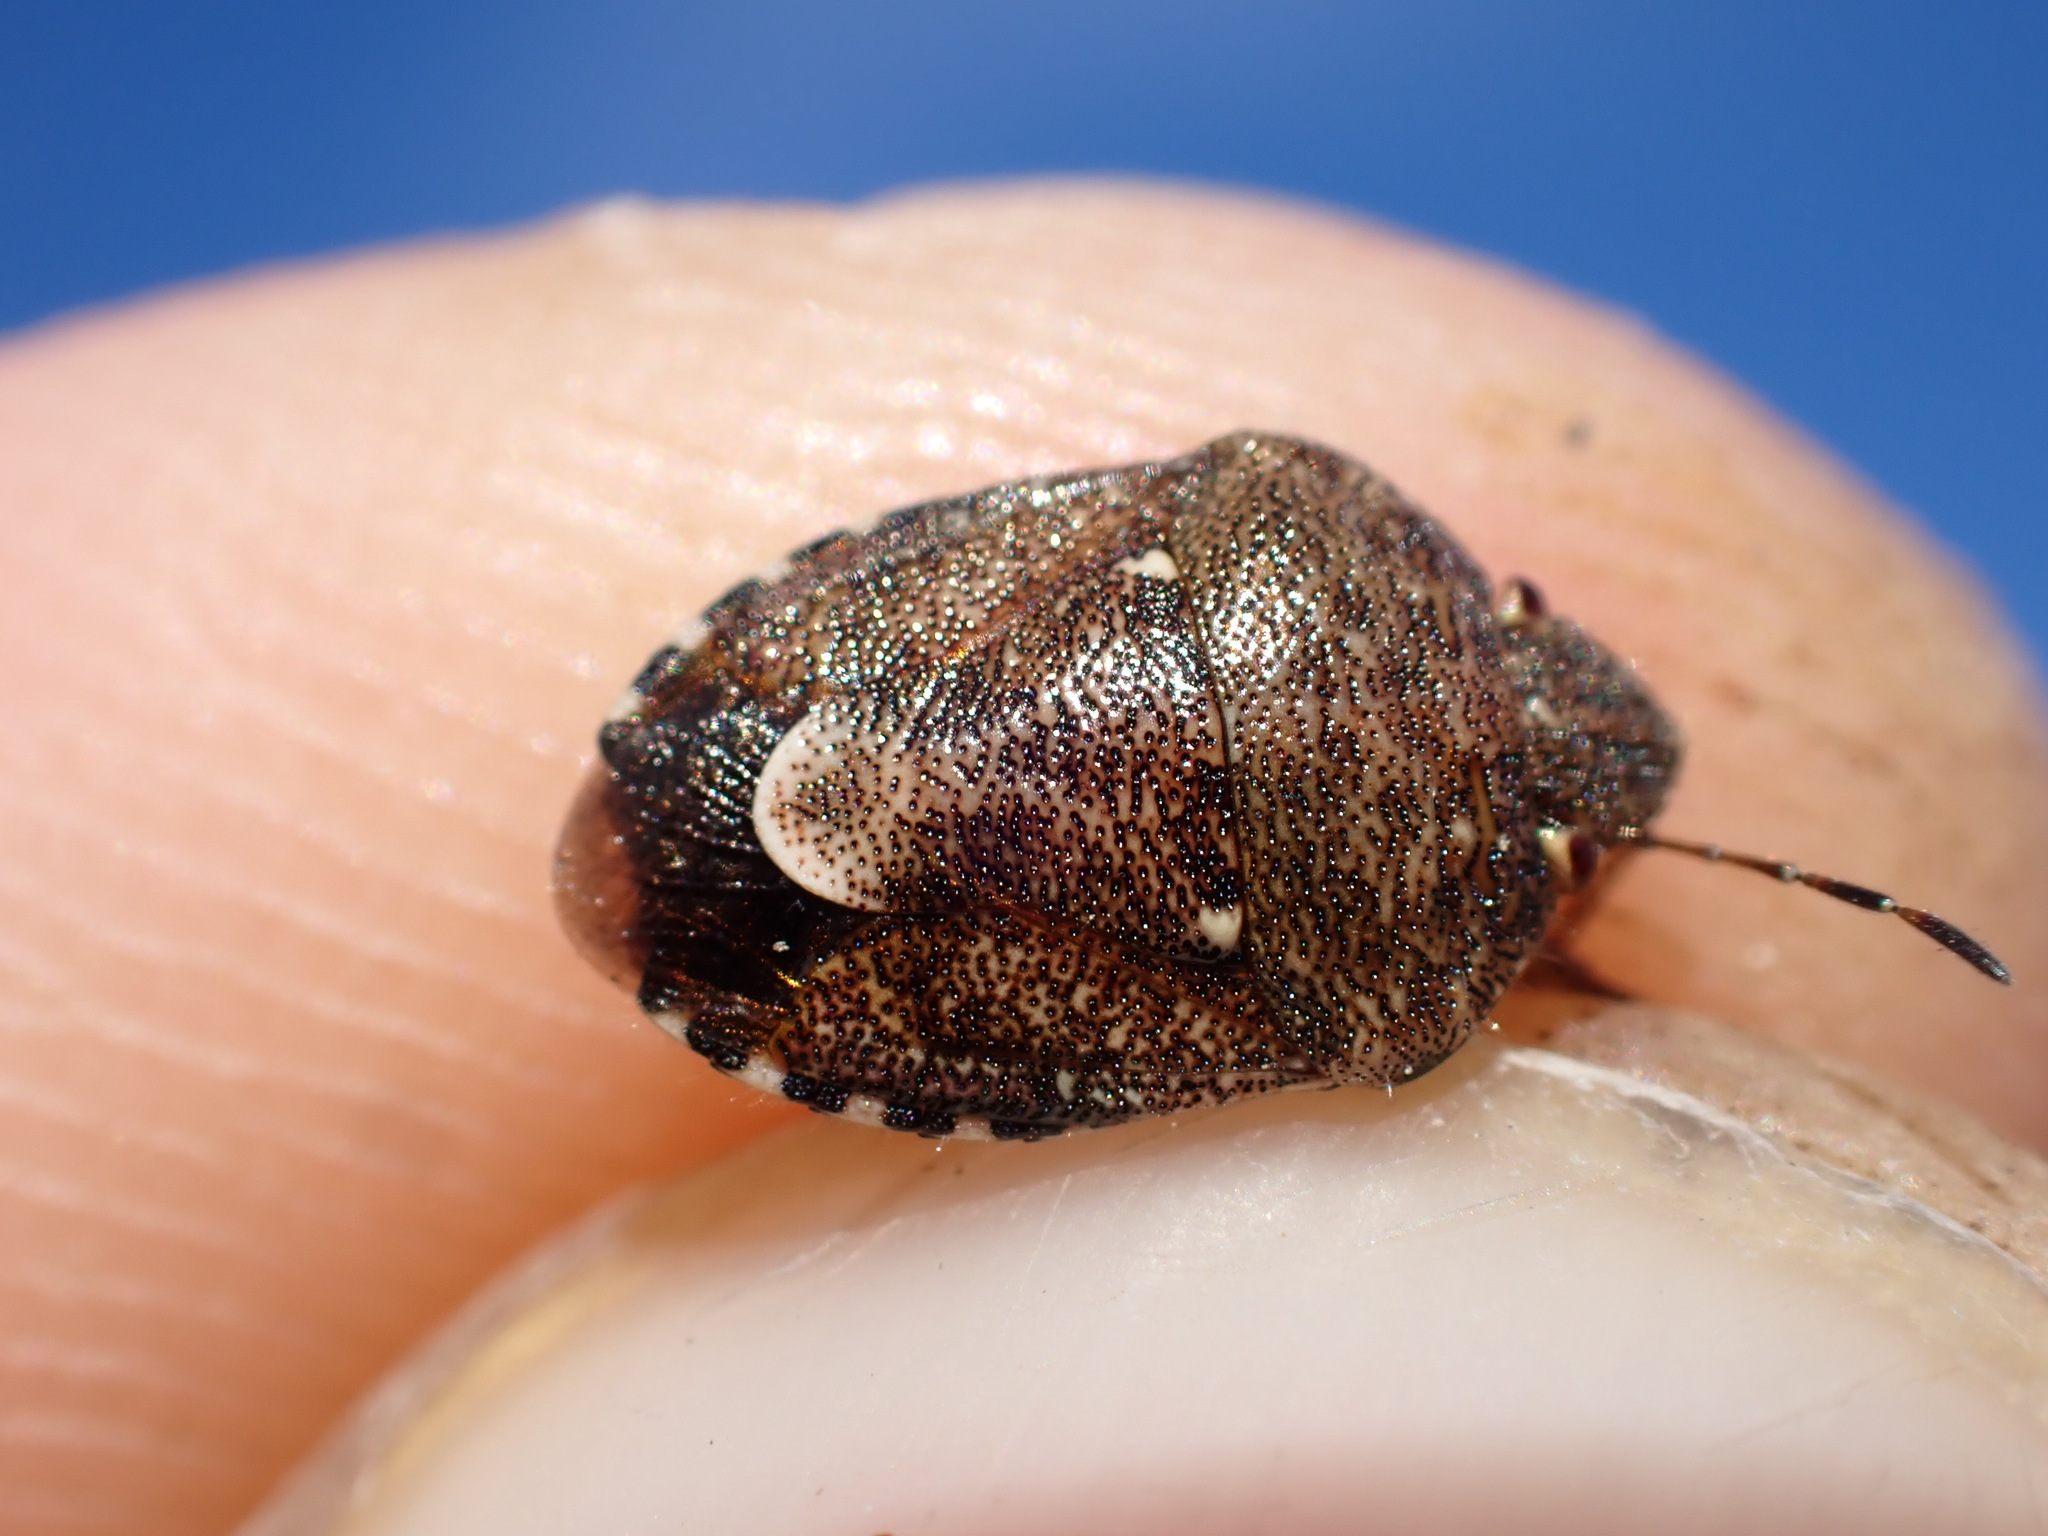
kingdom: Animalia
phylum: Arthropoda
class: Insecta
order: Hemiptera
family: Pentatomidae
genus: Staria
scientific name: Staria lunata
